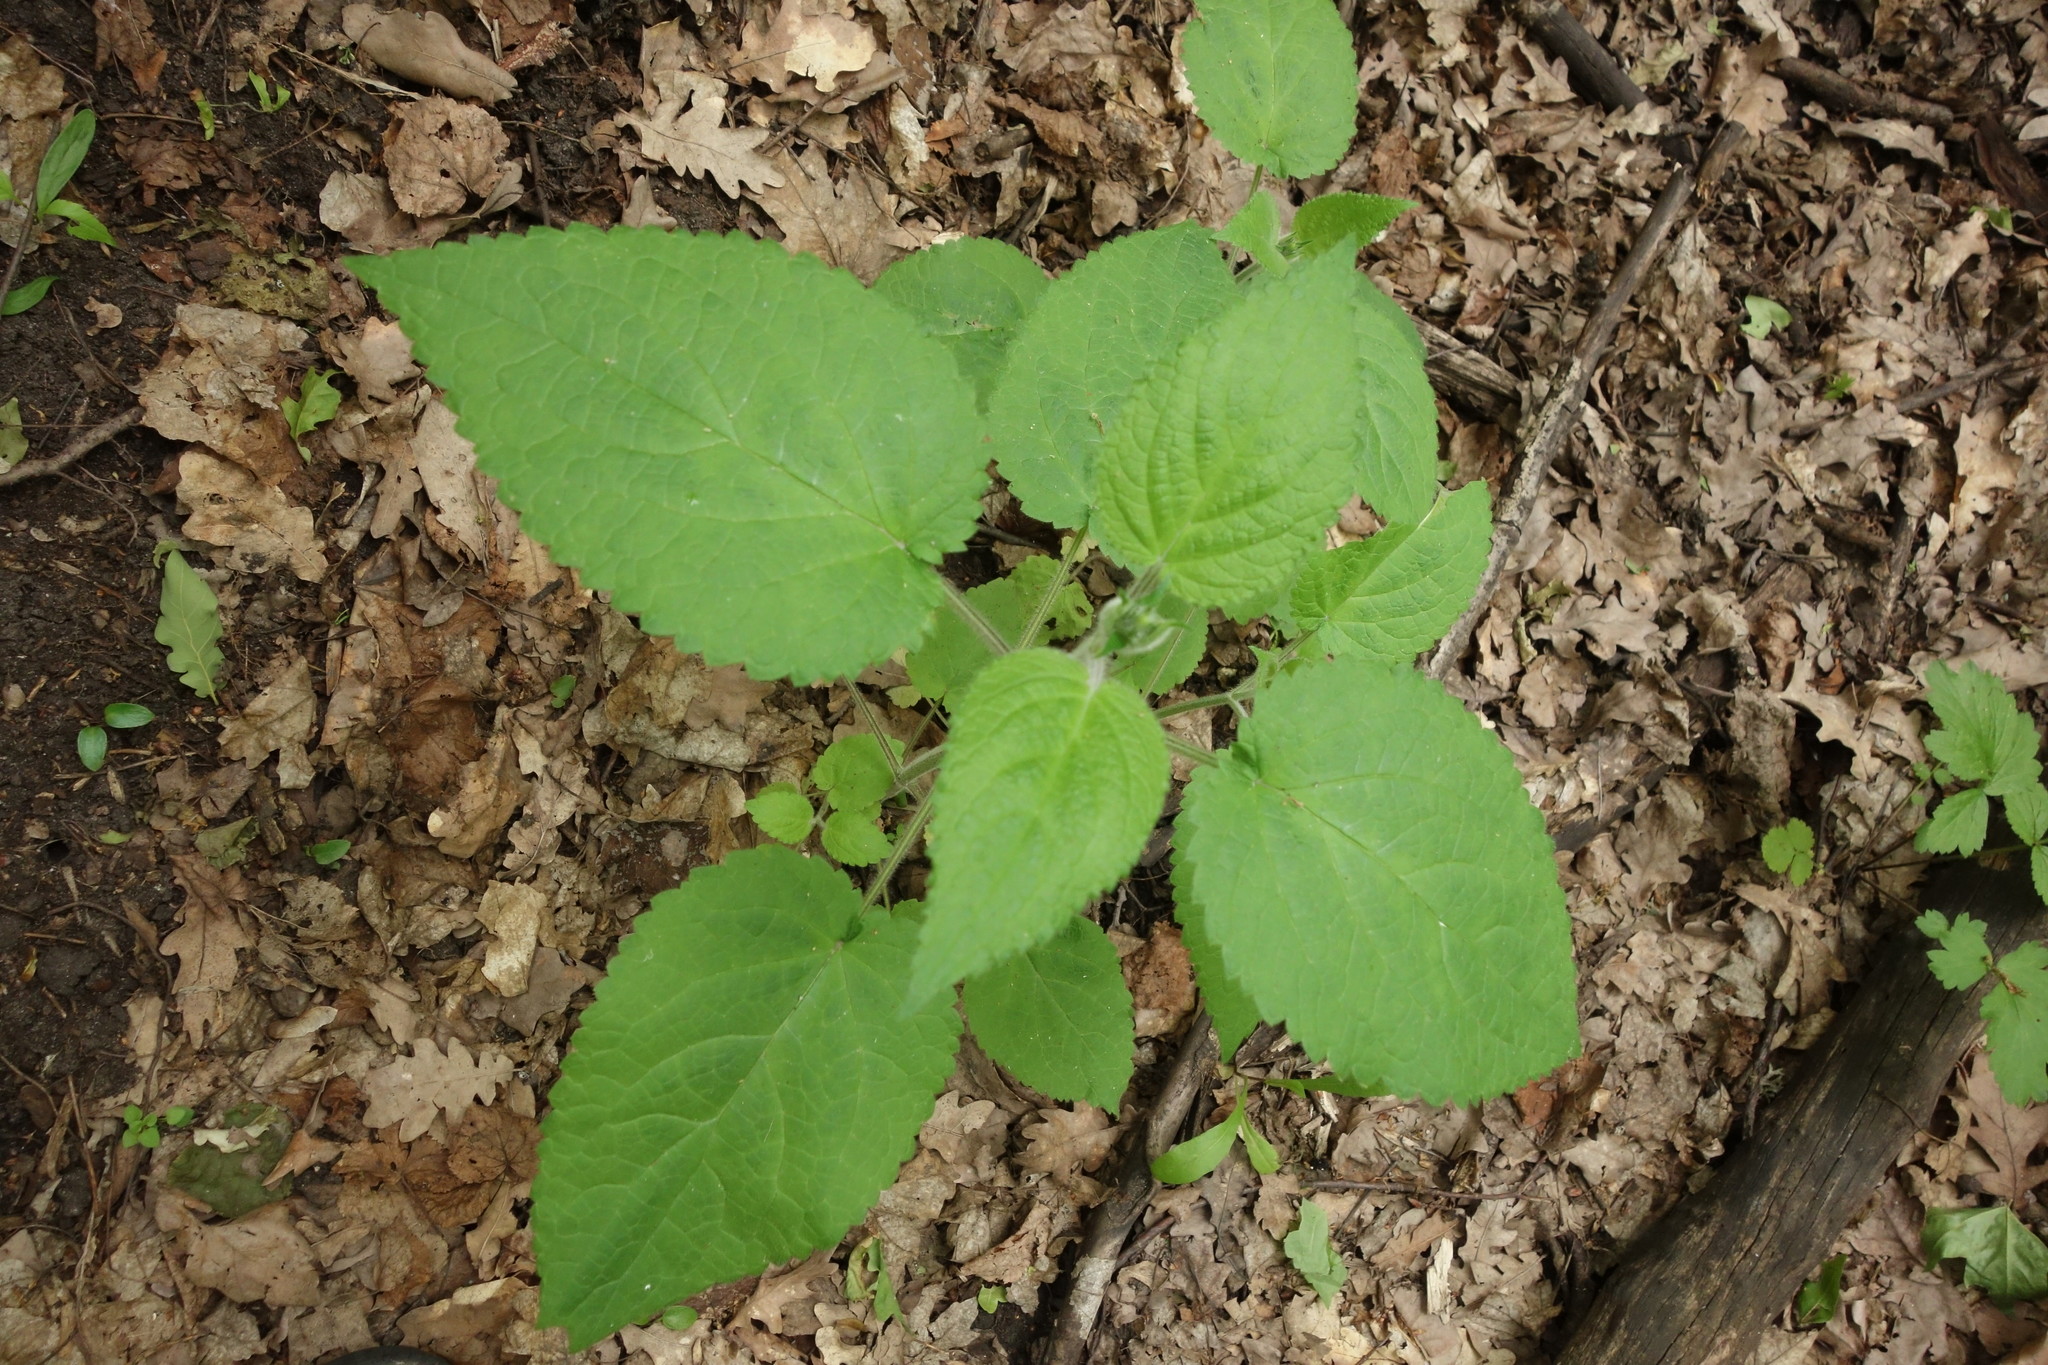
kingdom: Plantae
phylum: Tracheophyta
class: Magnoliopsida
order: Lamiales
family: Lamiaceae
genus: Stachys
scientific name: Stachys sylvatica
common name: Hedge woundwort
